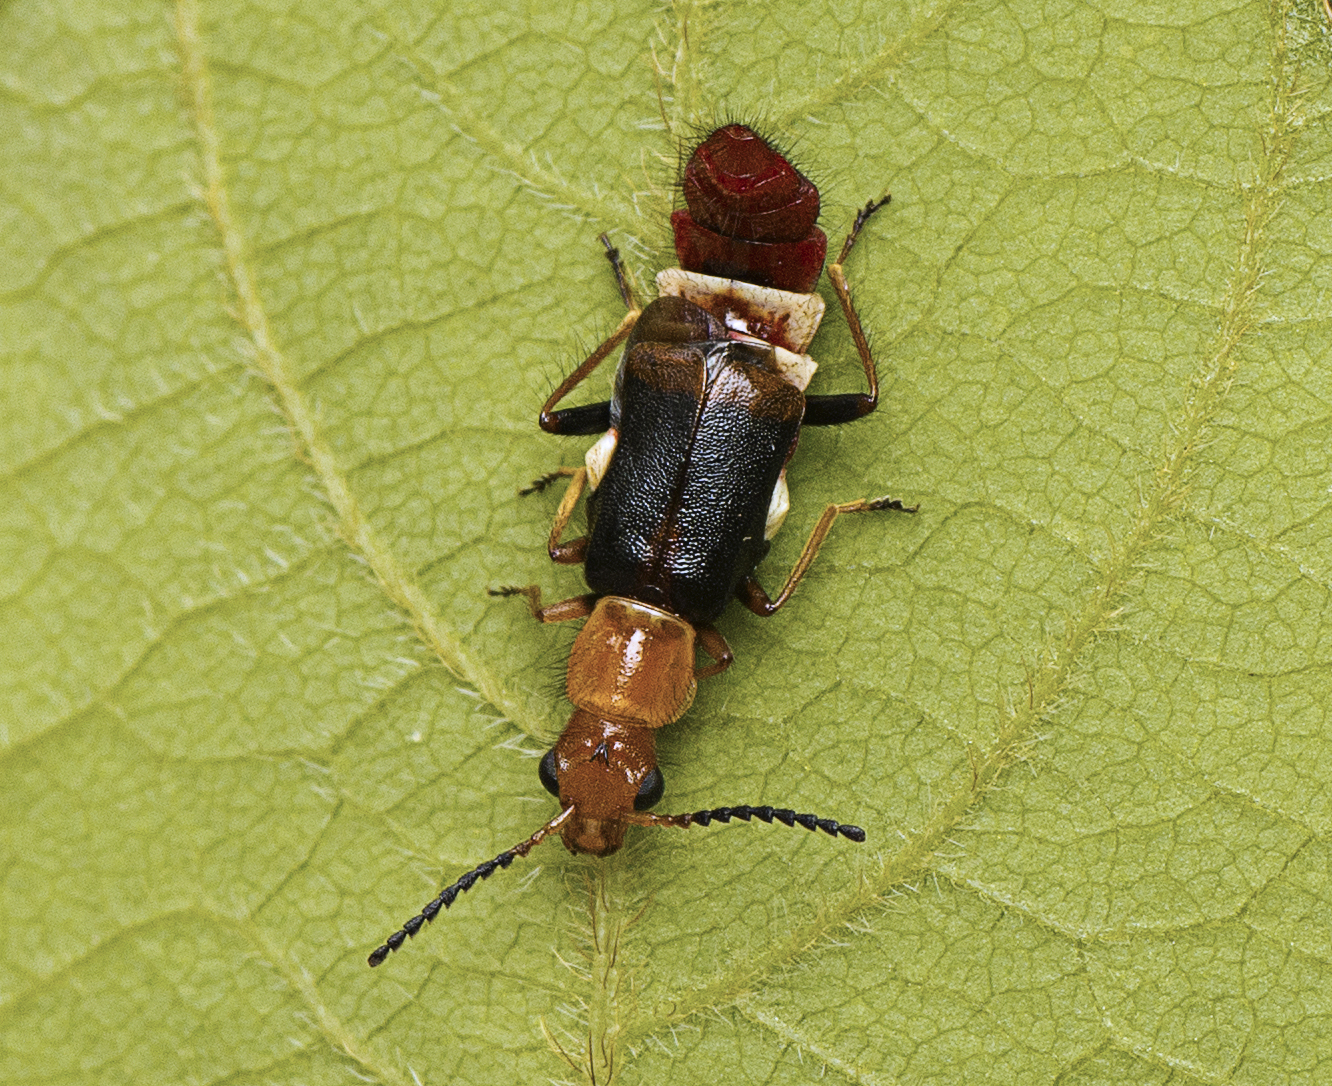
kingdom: Animalia
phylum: Arthropoda
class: Insecta
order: Coleoptera
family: Melyridae
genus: Carphurus
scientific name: Carphurus
